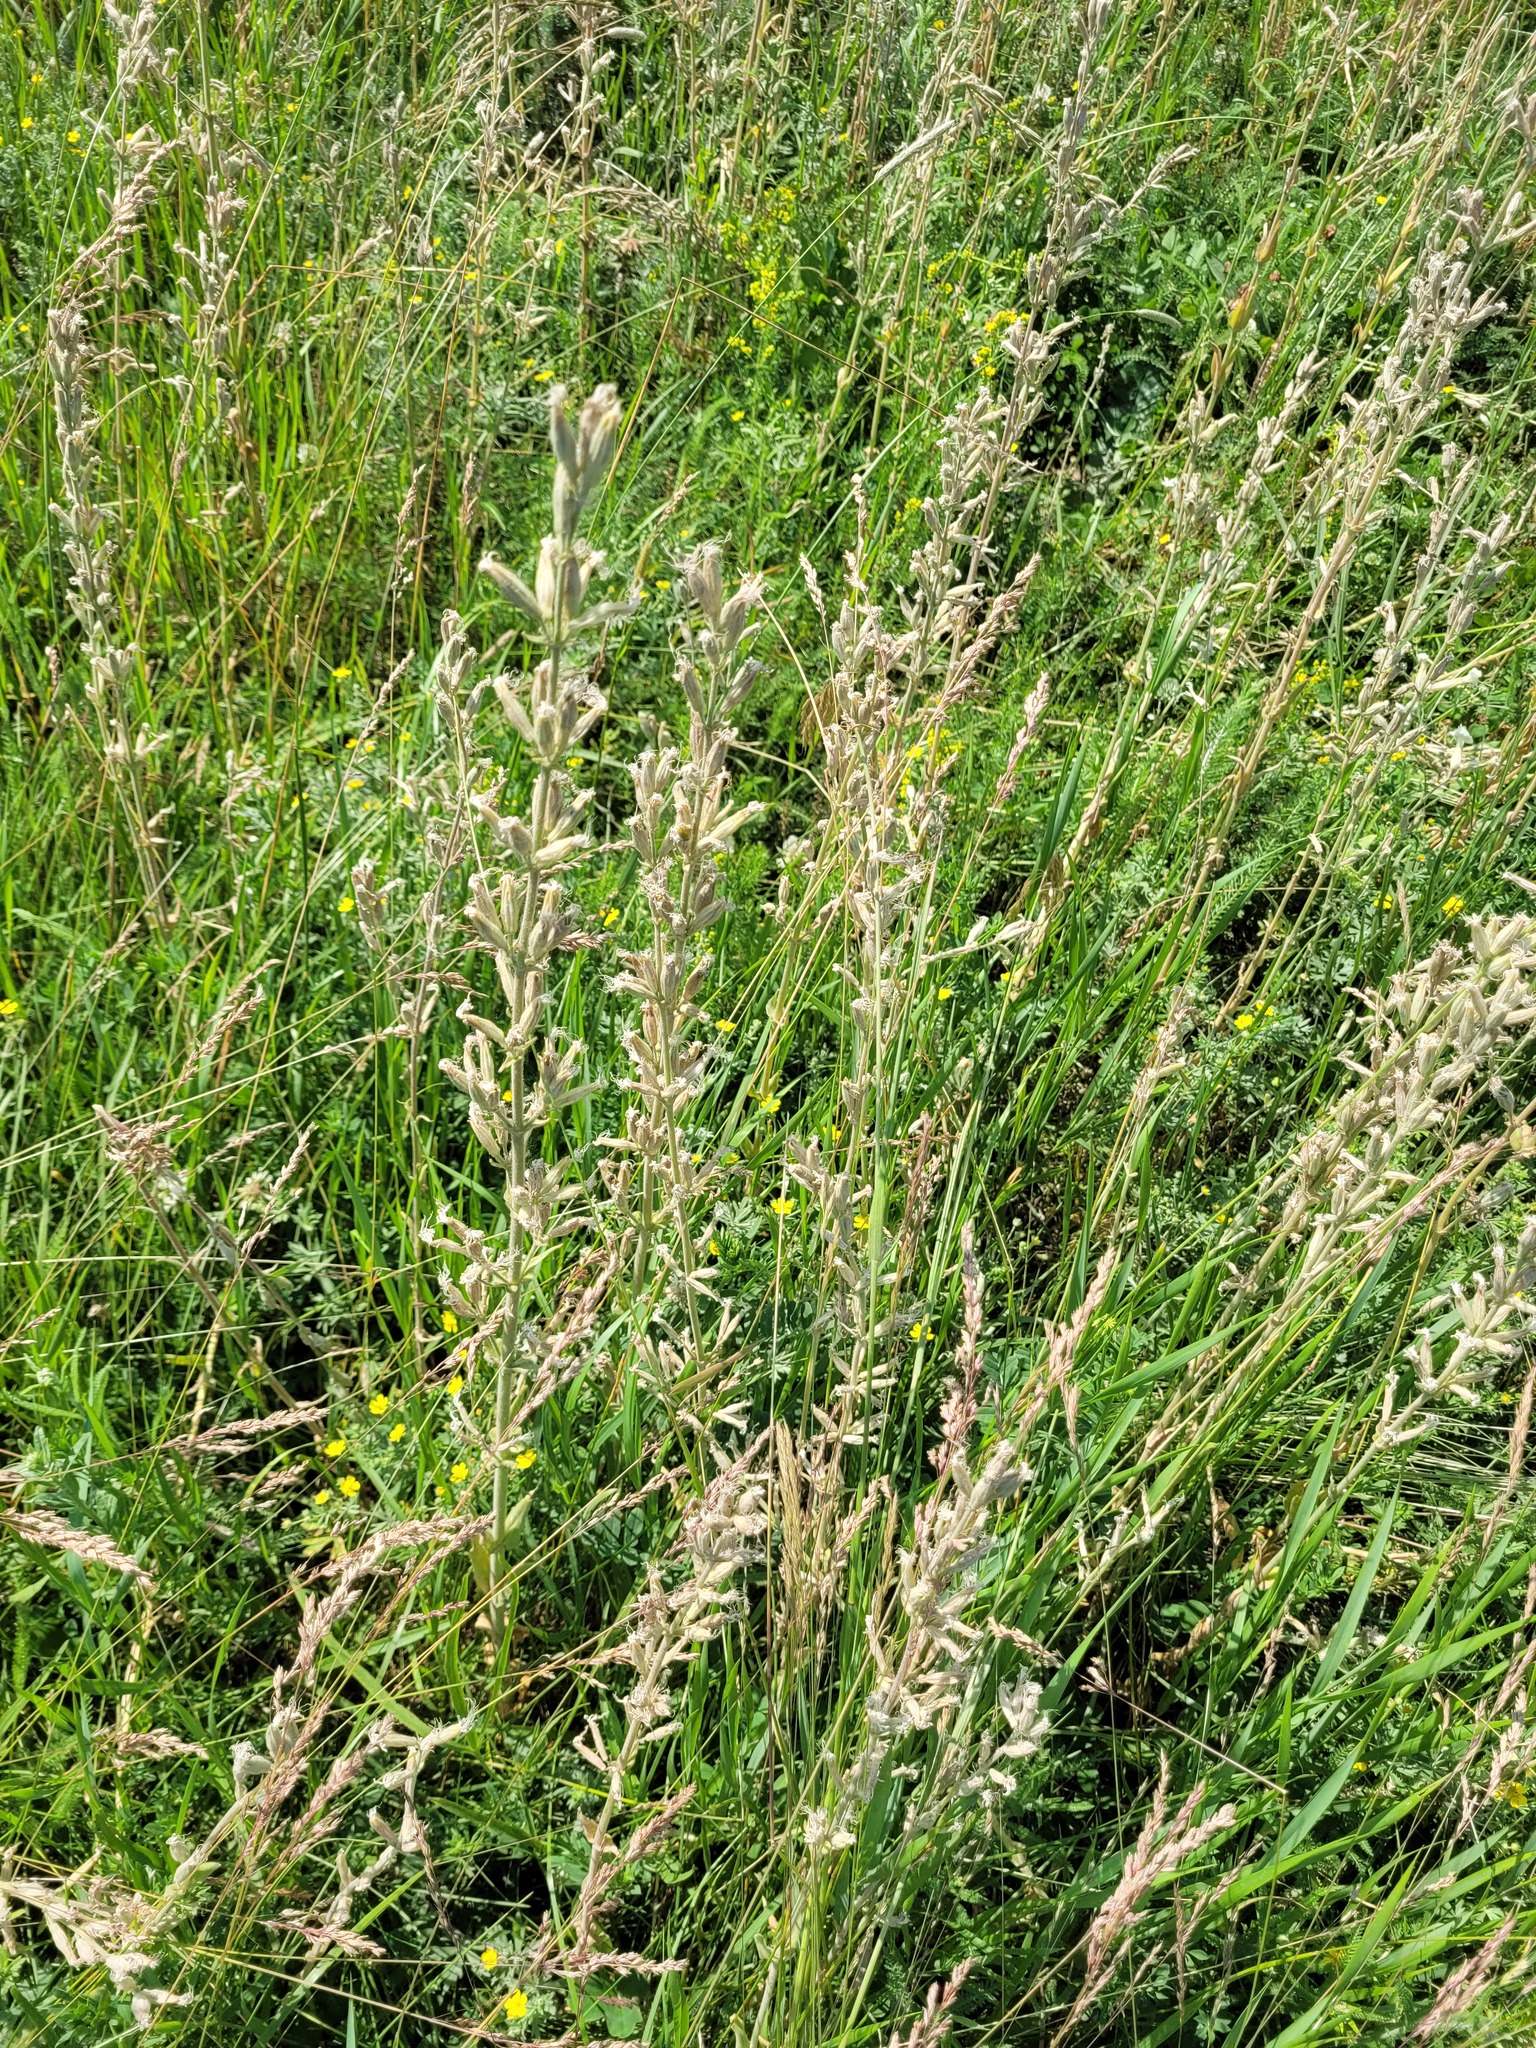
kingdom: Plantae
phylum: Tracheophyta
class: Magnoliopsida
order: Caryophyllales
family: Caryophyllaceae
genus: Silene
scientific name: Silene viscosa
